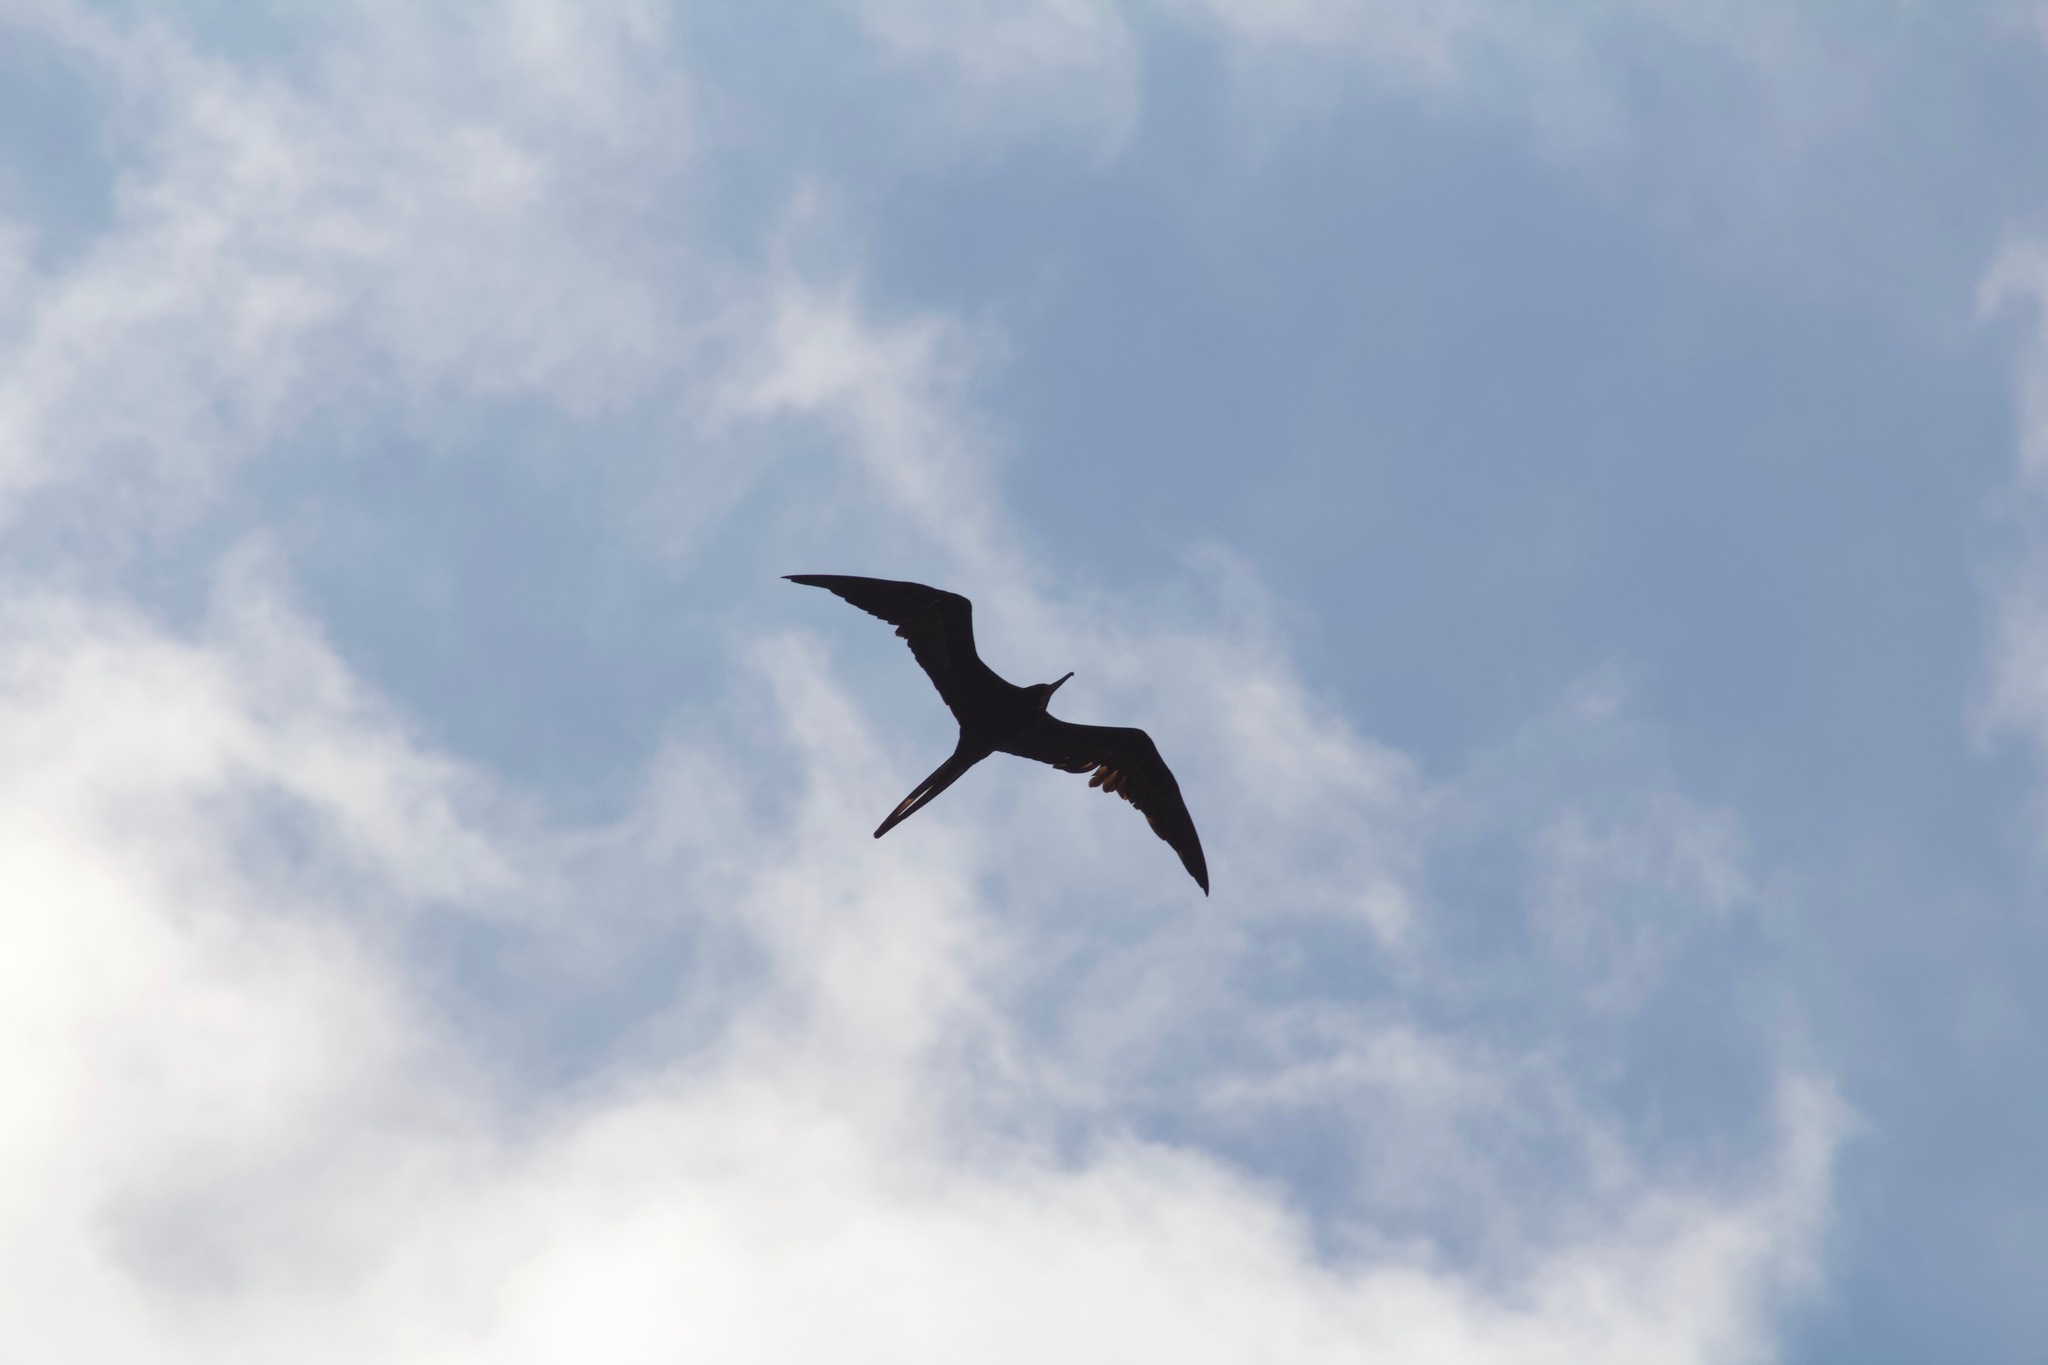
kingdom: Animalia
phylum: Chordata
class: Aves
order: Suliformes
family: Fregatidae
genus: Fregata
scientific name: Fregata magnificens
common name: Magnificent frigatebird
